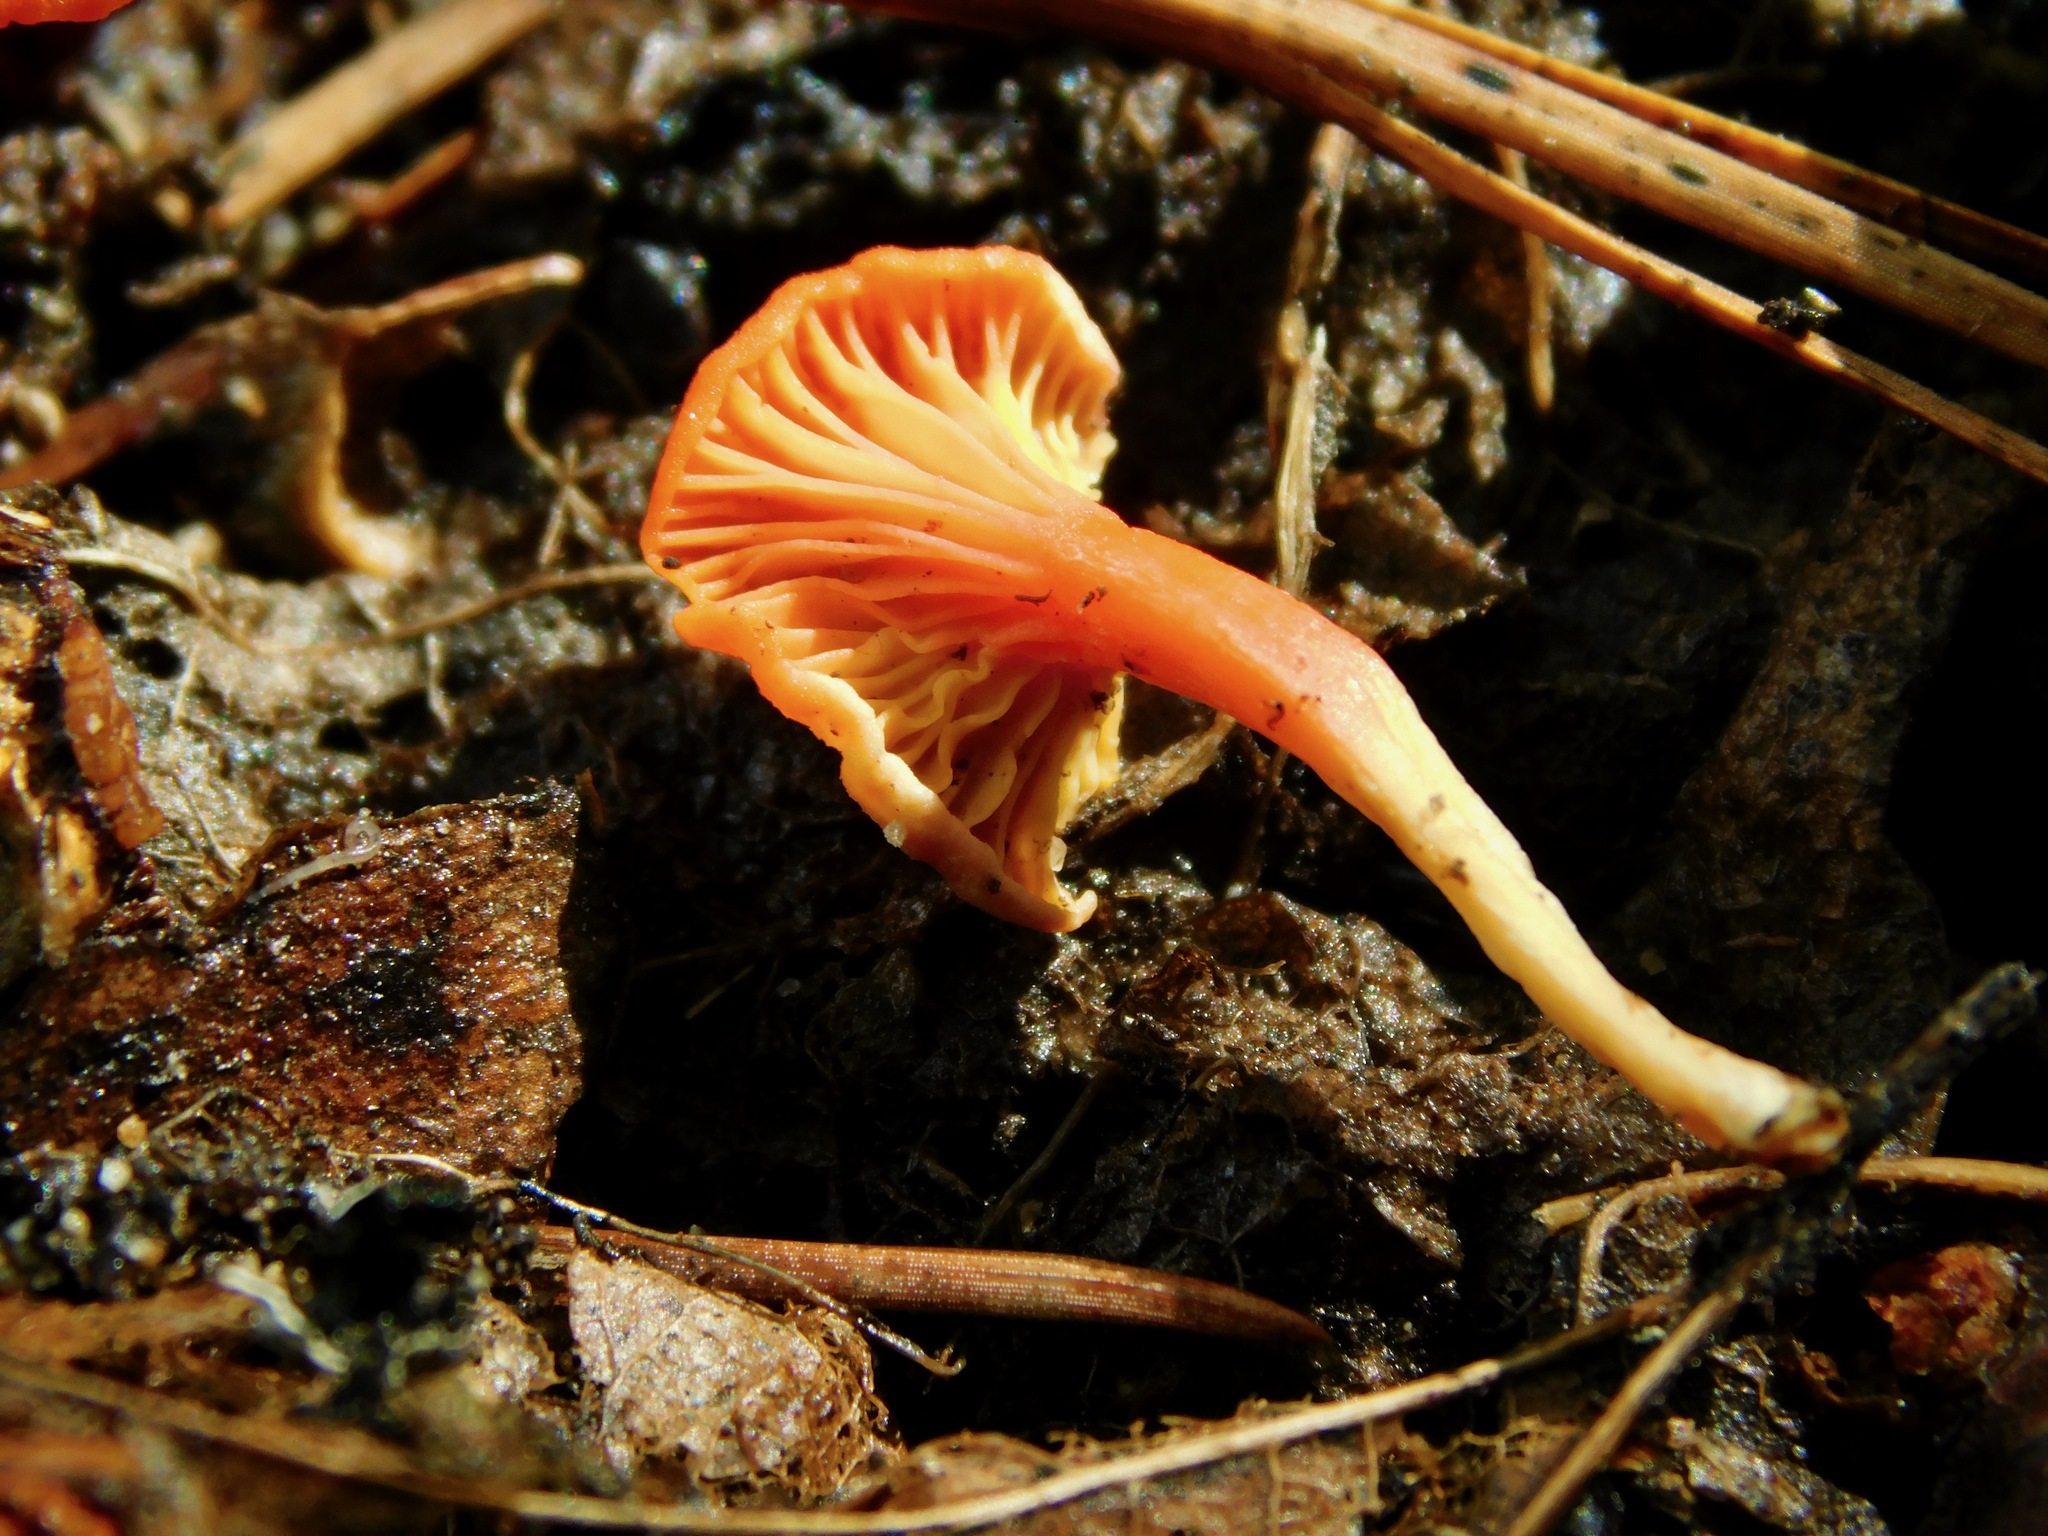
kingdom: Fungi
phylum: Basidiomycota
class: Agaricomycetes
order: Cantharellales
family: Hydnaceae
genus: Cantharellus
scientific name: Cantharellus cinnabarinus
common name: Cinnabar chanterelle
